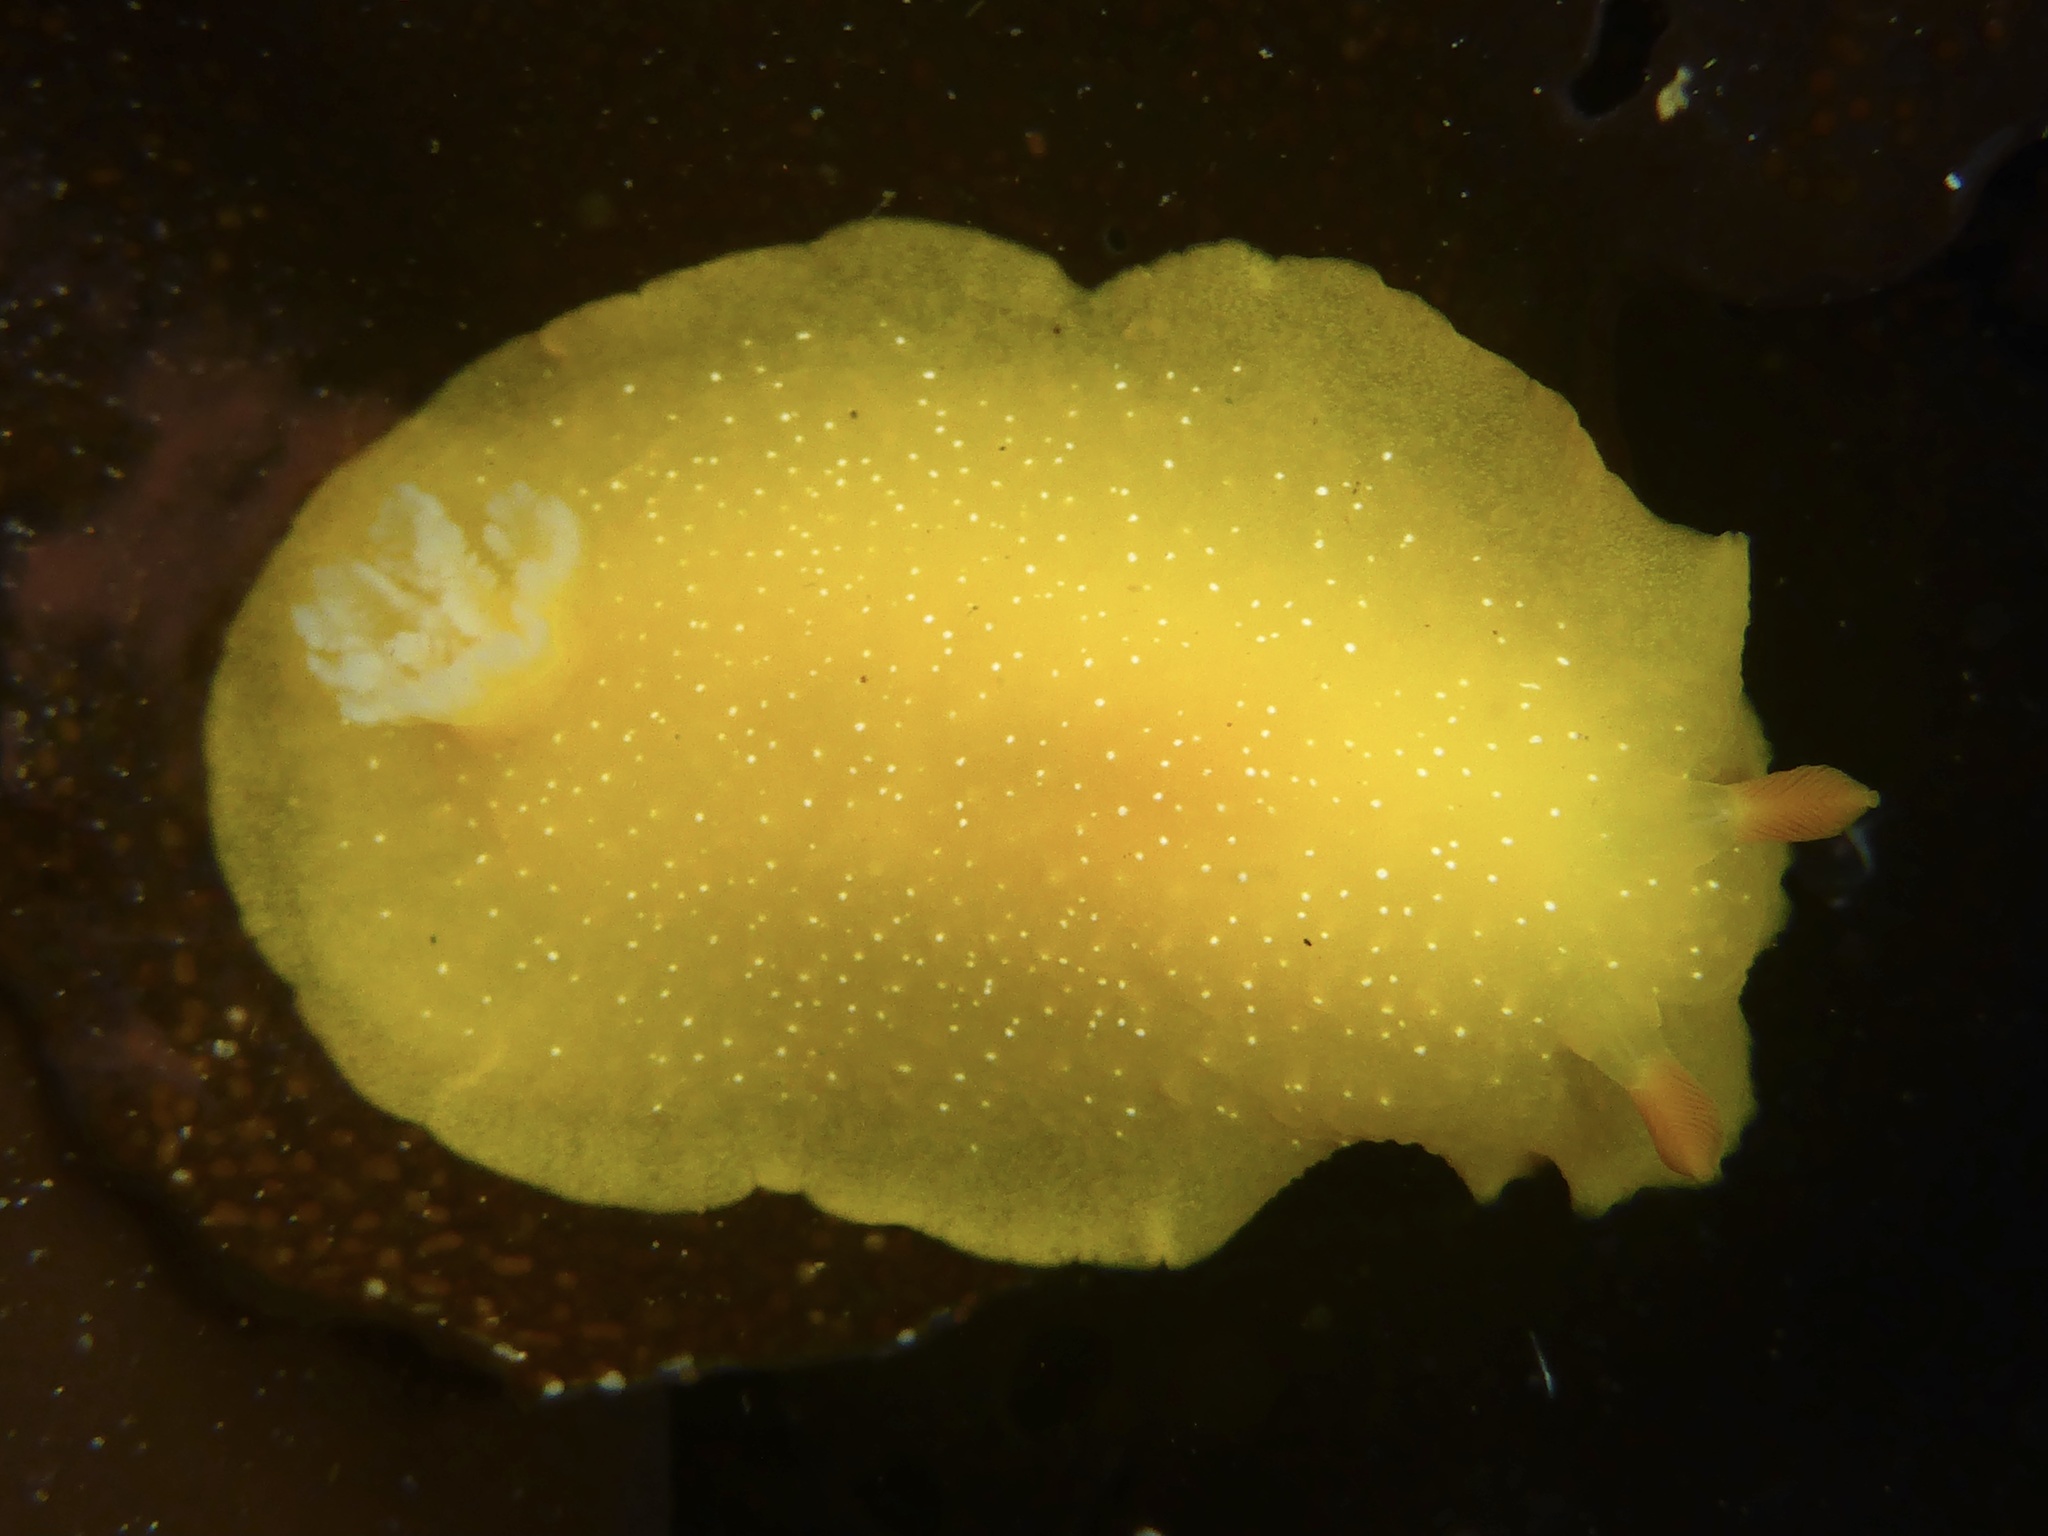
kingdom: Animalia
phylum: Mollusca
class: Gastropoda
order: Nudibranchia
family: Dendrodorididae
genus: Doriopsilla
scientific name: Doriopsilla fulva
